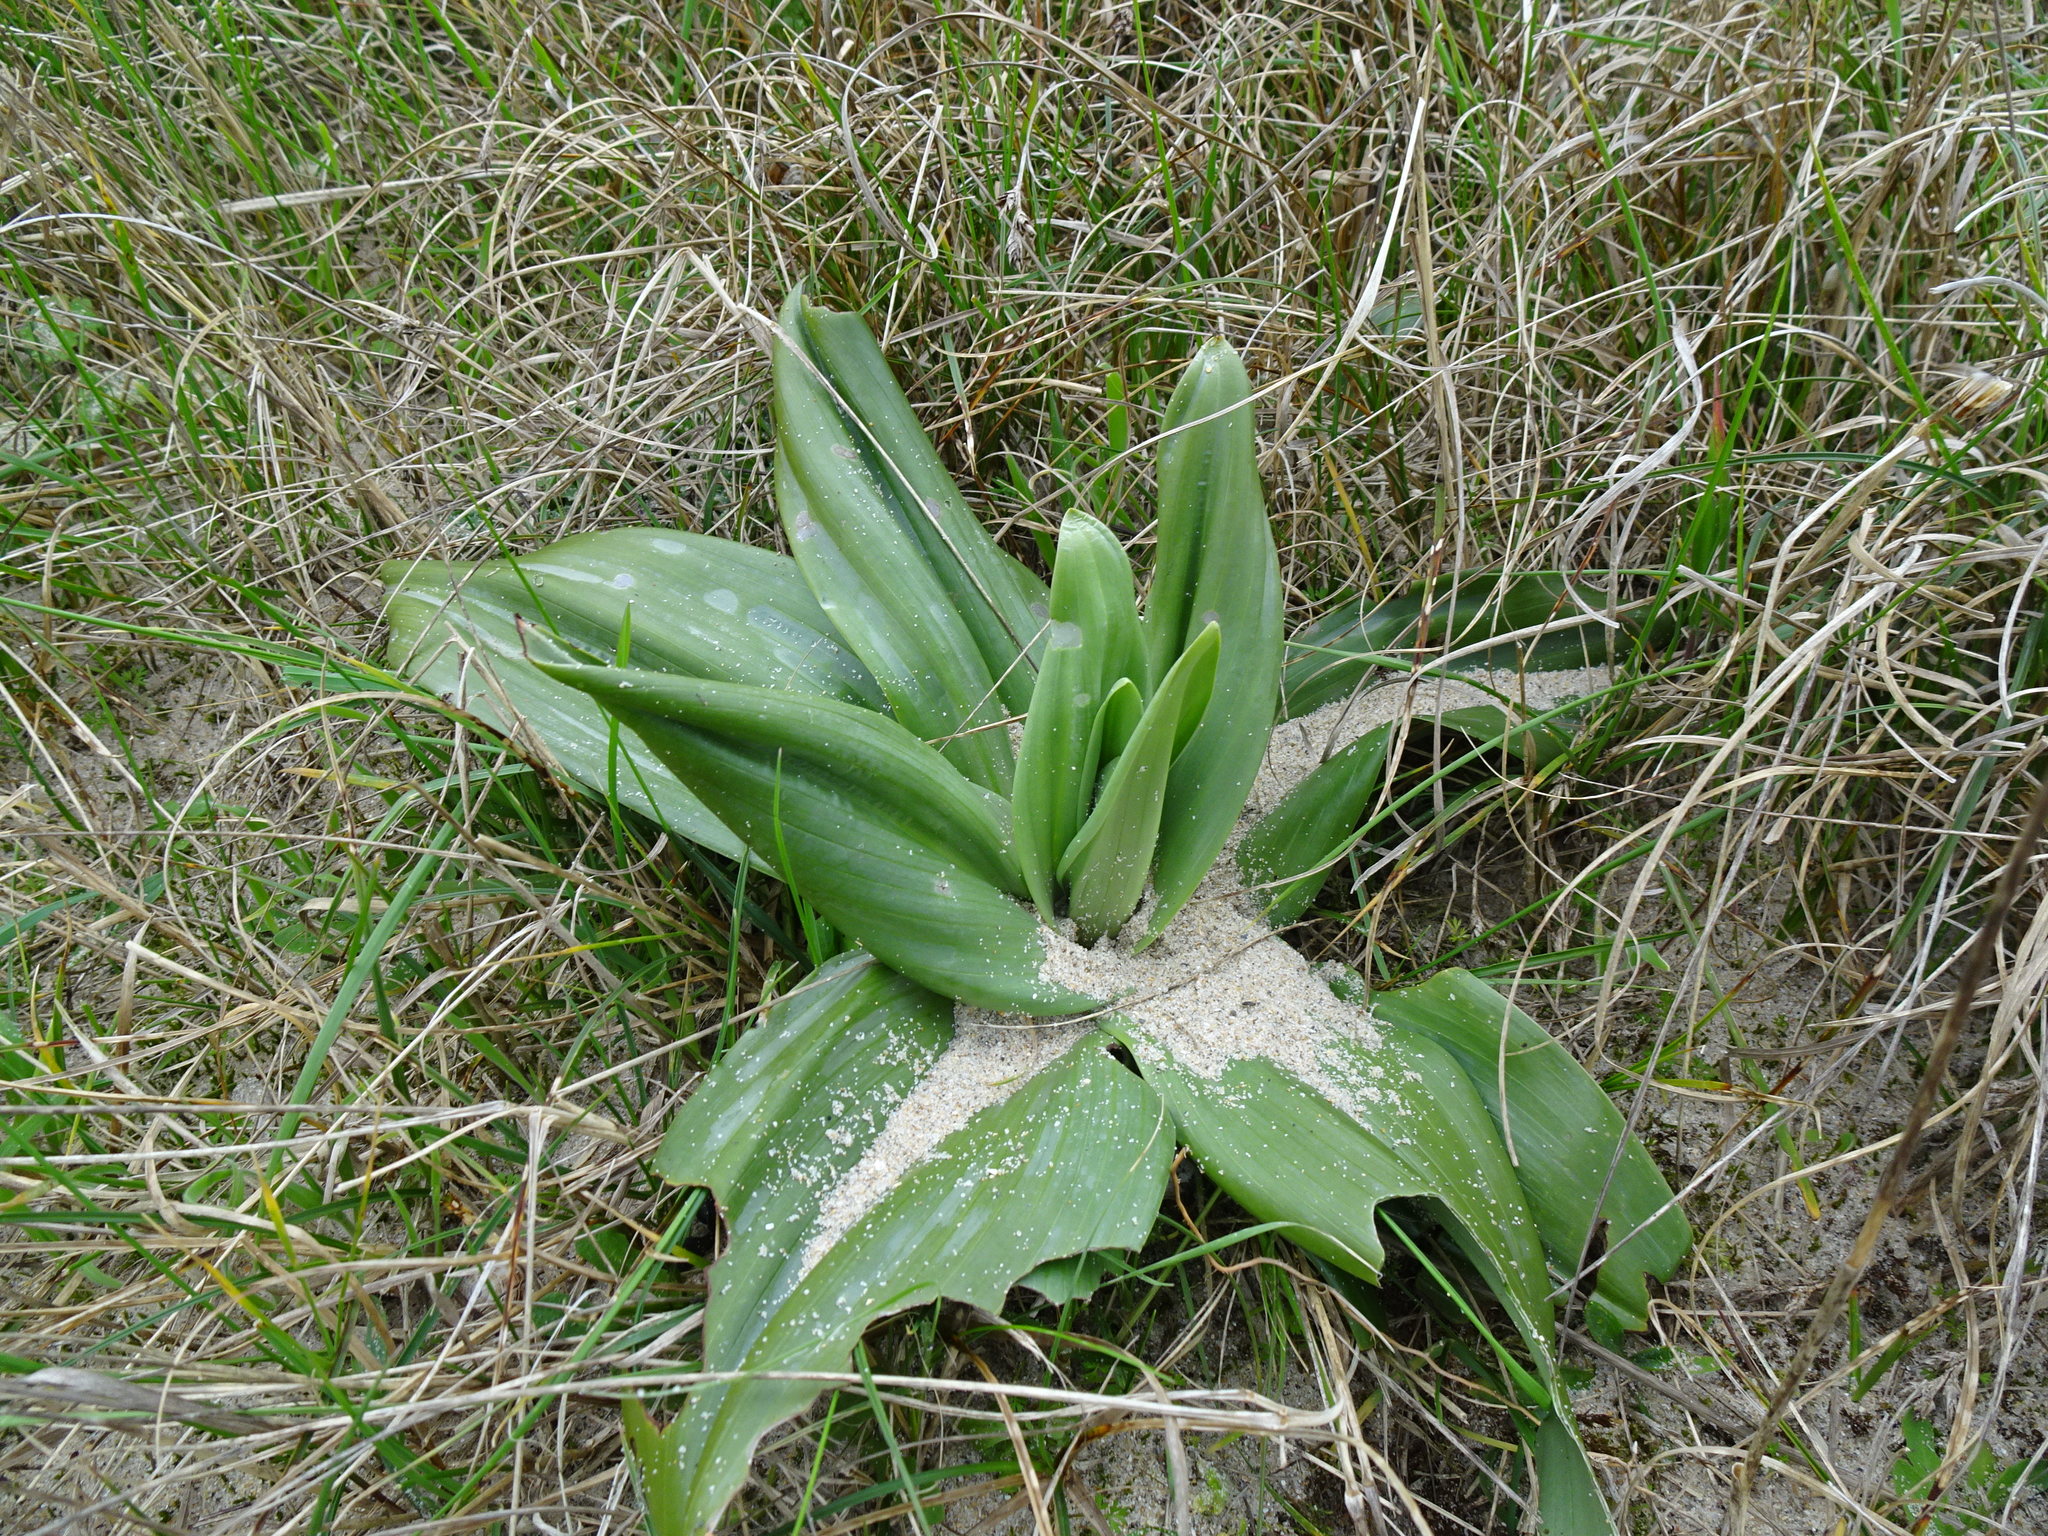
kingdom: Plantae
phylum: Tracheophyta
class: Liliopsida
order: Asparagales
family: Orchidaceae
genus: Himantoglossum
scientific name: Himantoglossum hircinum
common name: Lizard orchid
